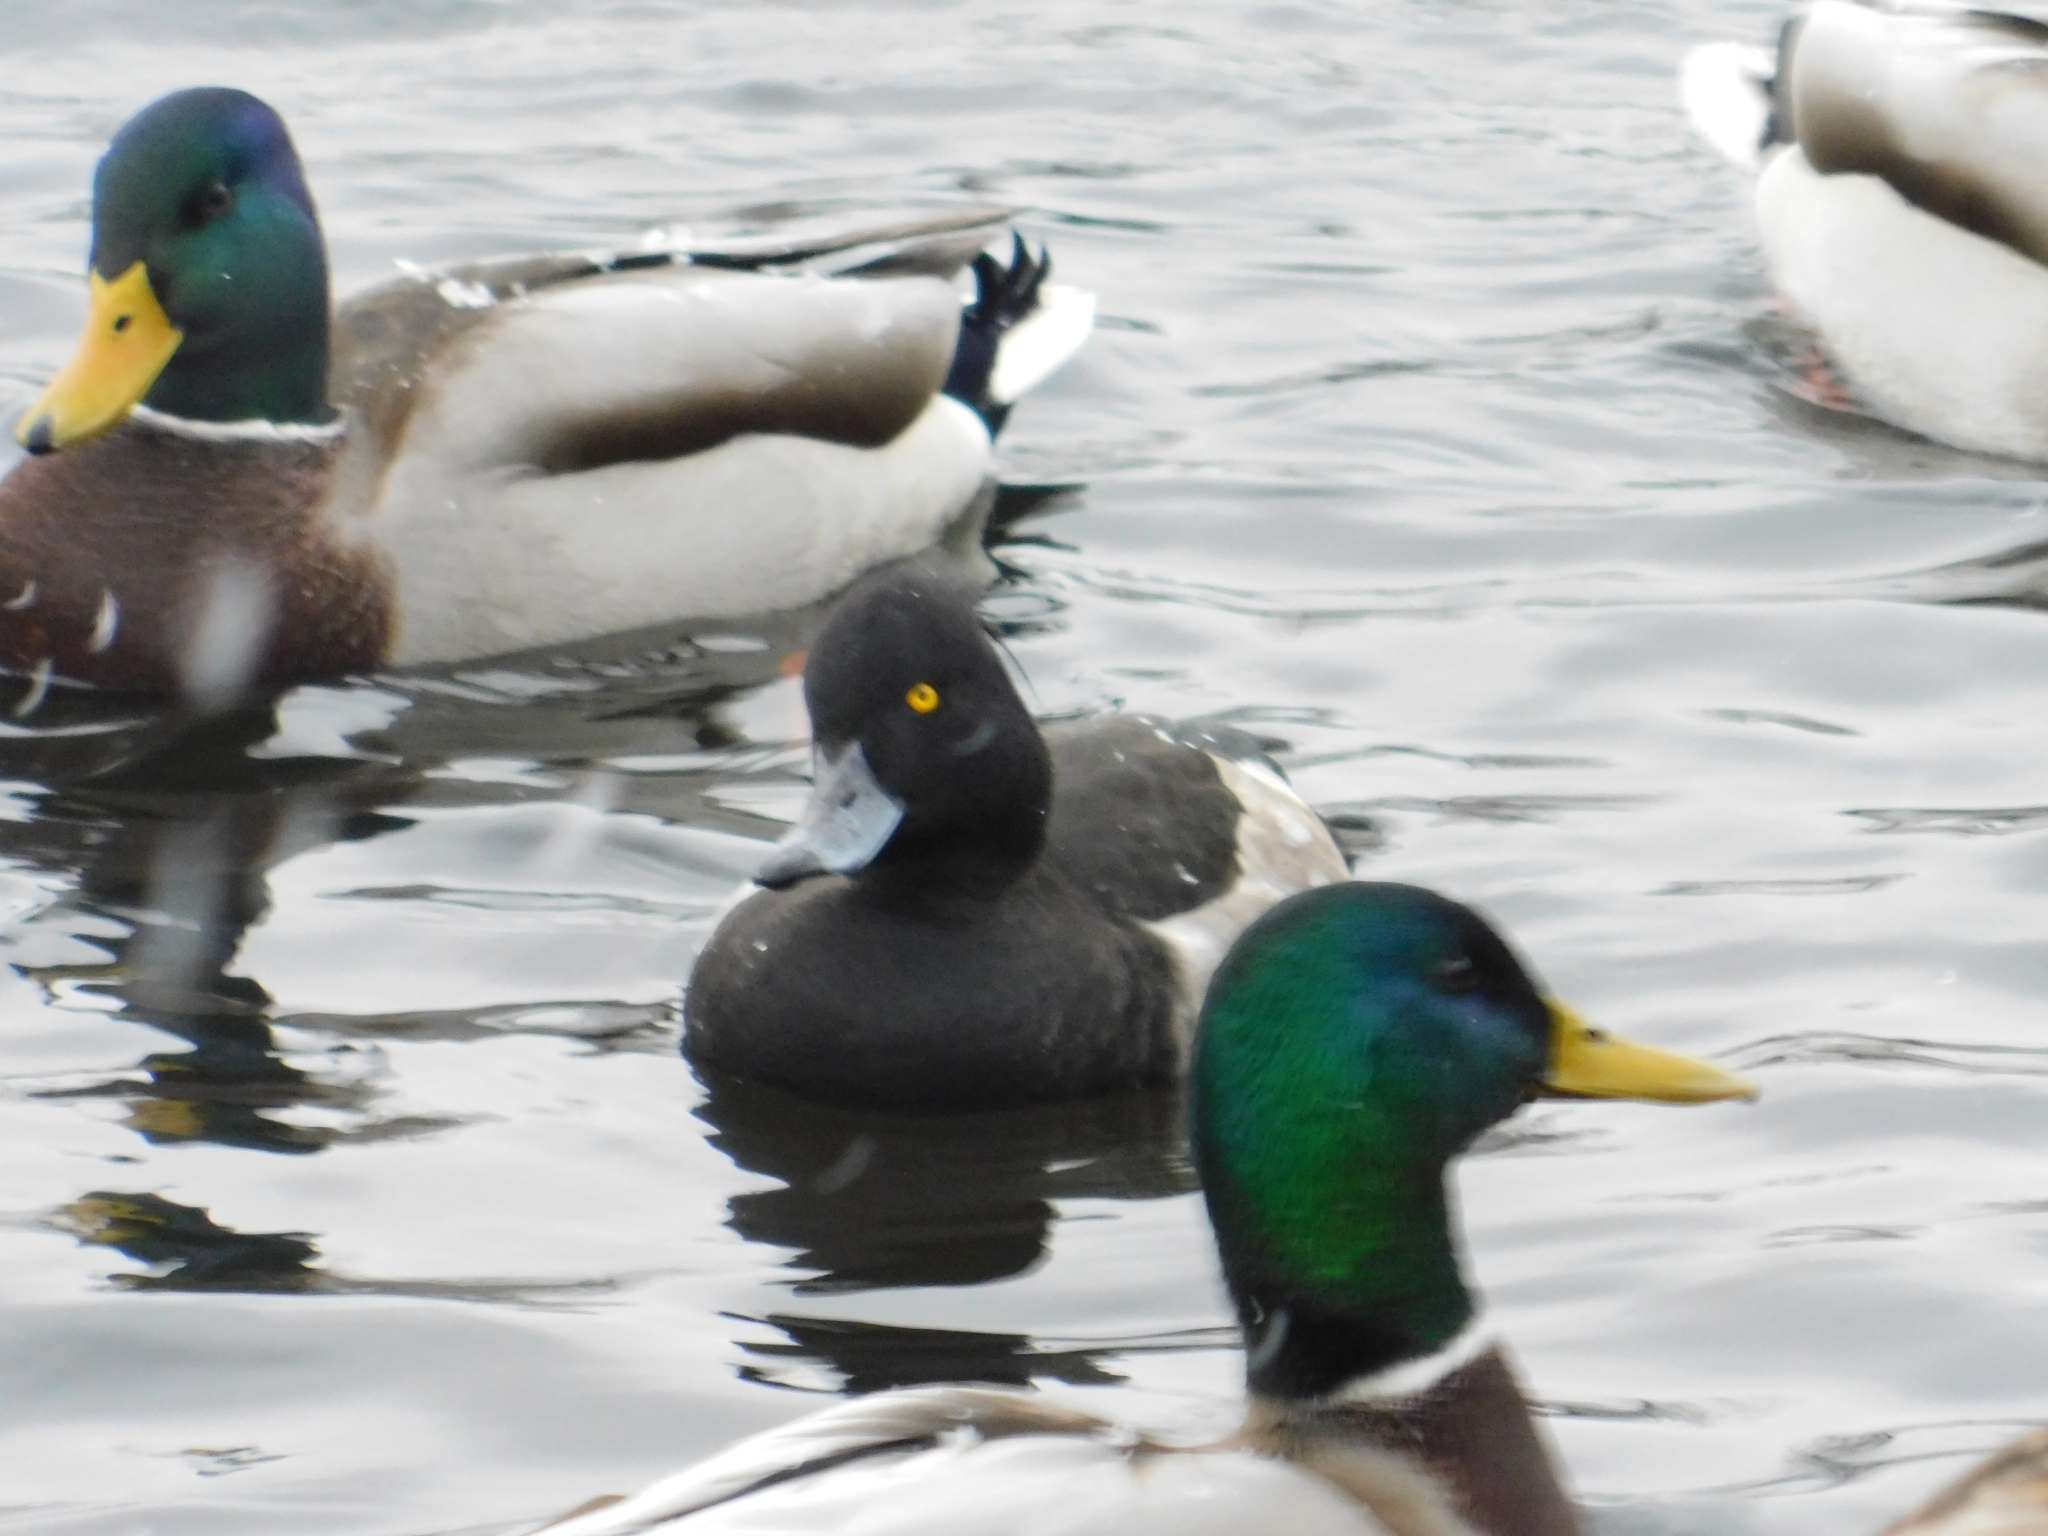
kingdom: Animalia
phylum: Chordata
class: Aves
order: Anseriformes
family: Anatidae
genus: Aythya
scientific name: Aythya fuligula
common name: Tufted duck
